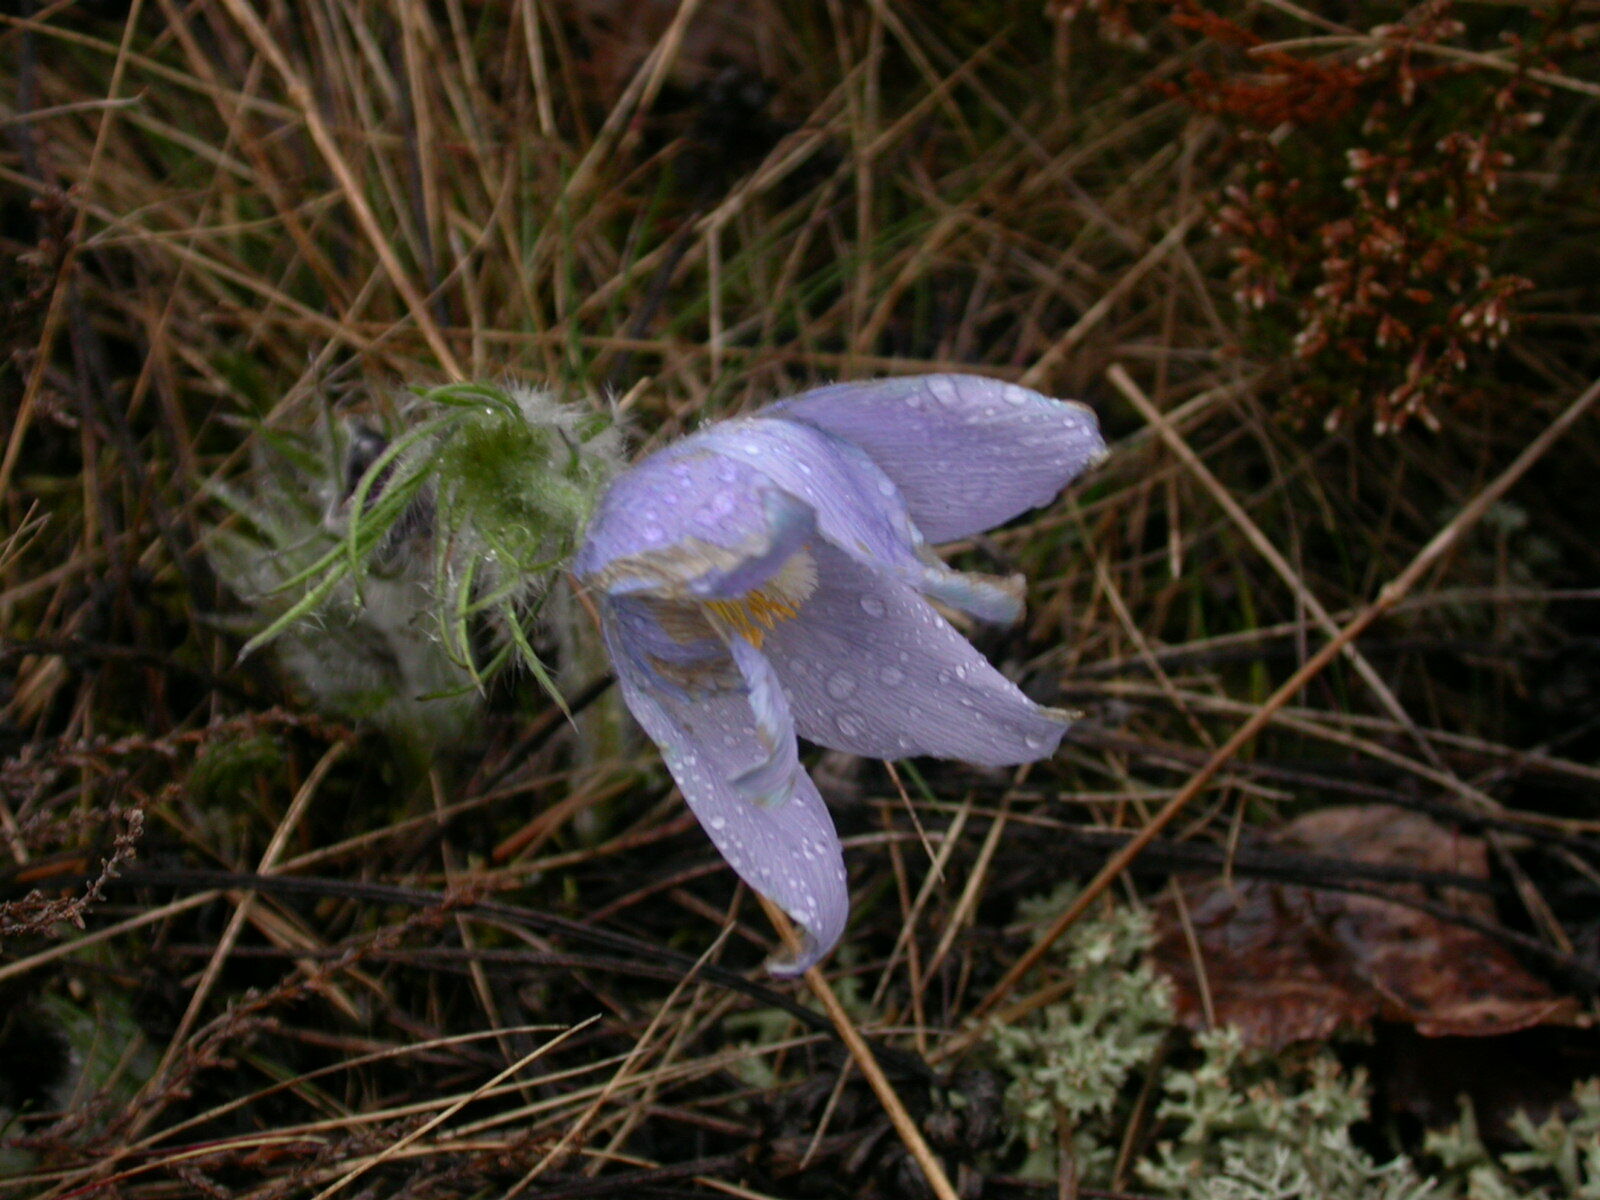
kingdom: Plantae
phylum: Tracheophyta
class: Magnoliopsida
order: Ranunculales
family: Ranunculaceae
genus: Pulsatilla
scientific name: Pulsatilla patens
